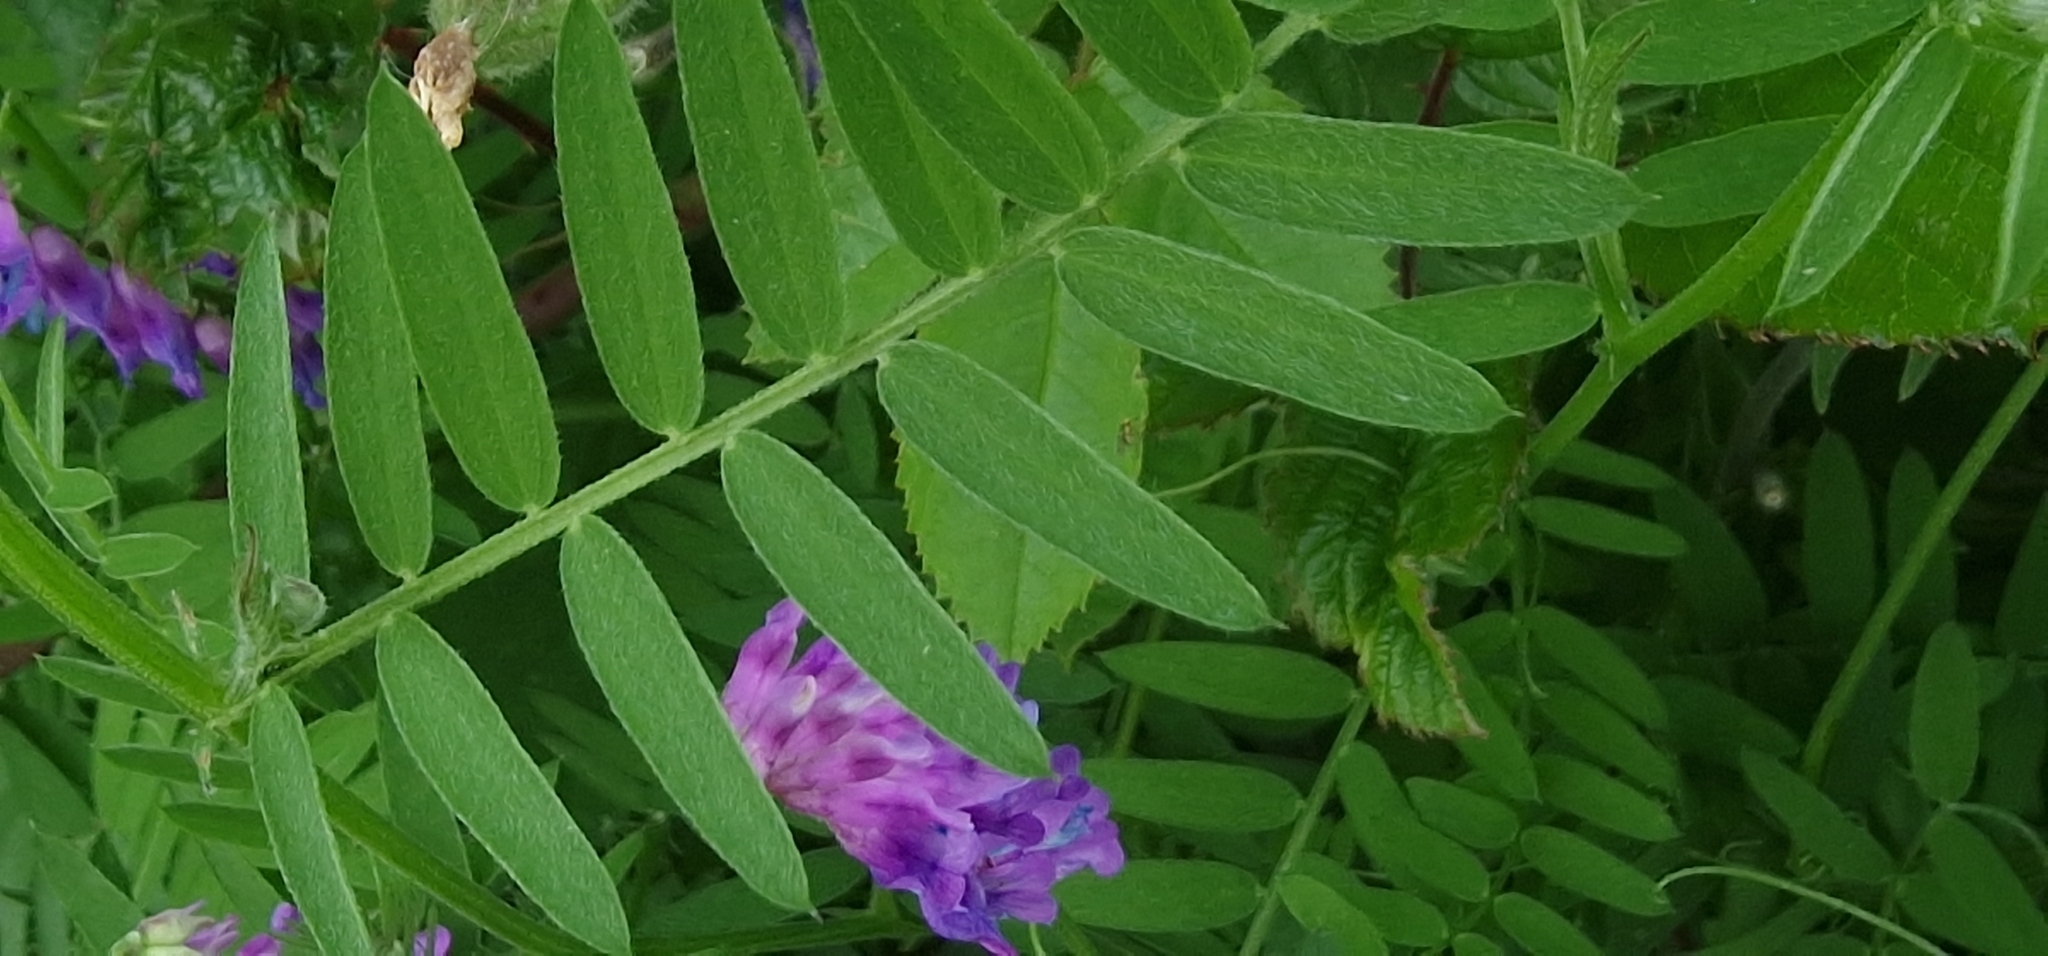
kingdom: Plantae
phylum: Tracheophyta
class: Magnoliopsida
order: Fabales
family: Fabaceae
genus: Vicia
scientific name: Vicia cracca
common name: Bird vetch
